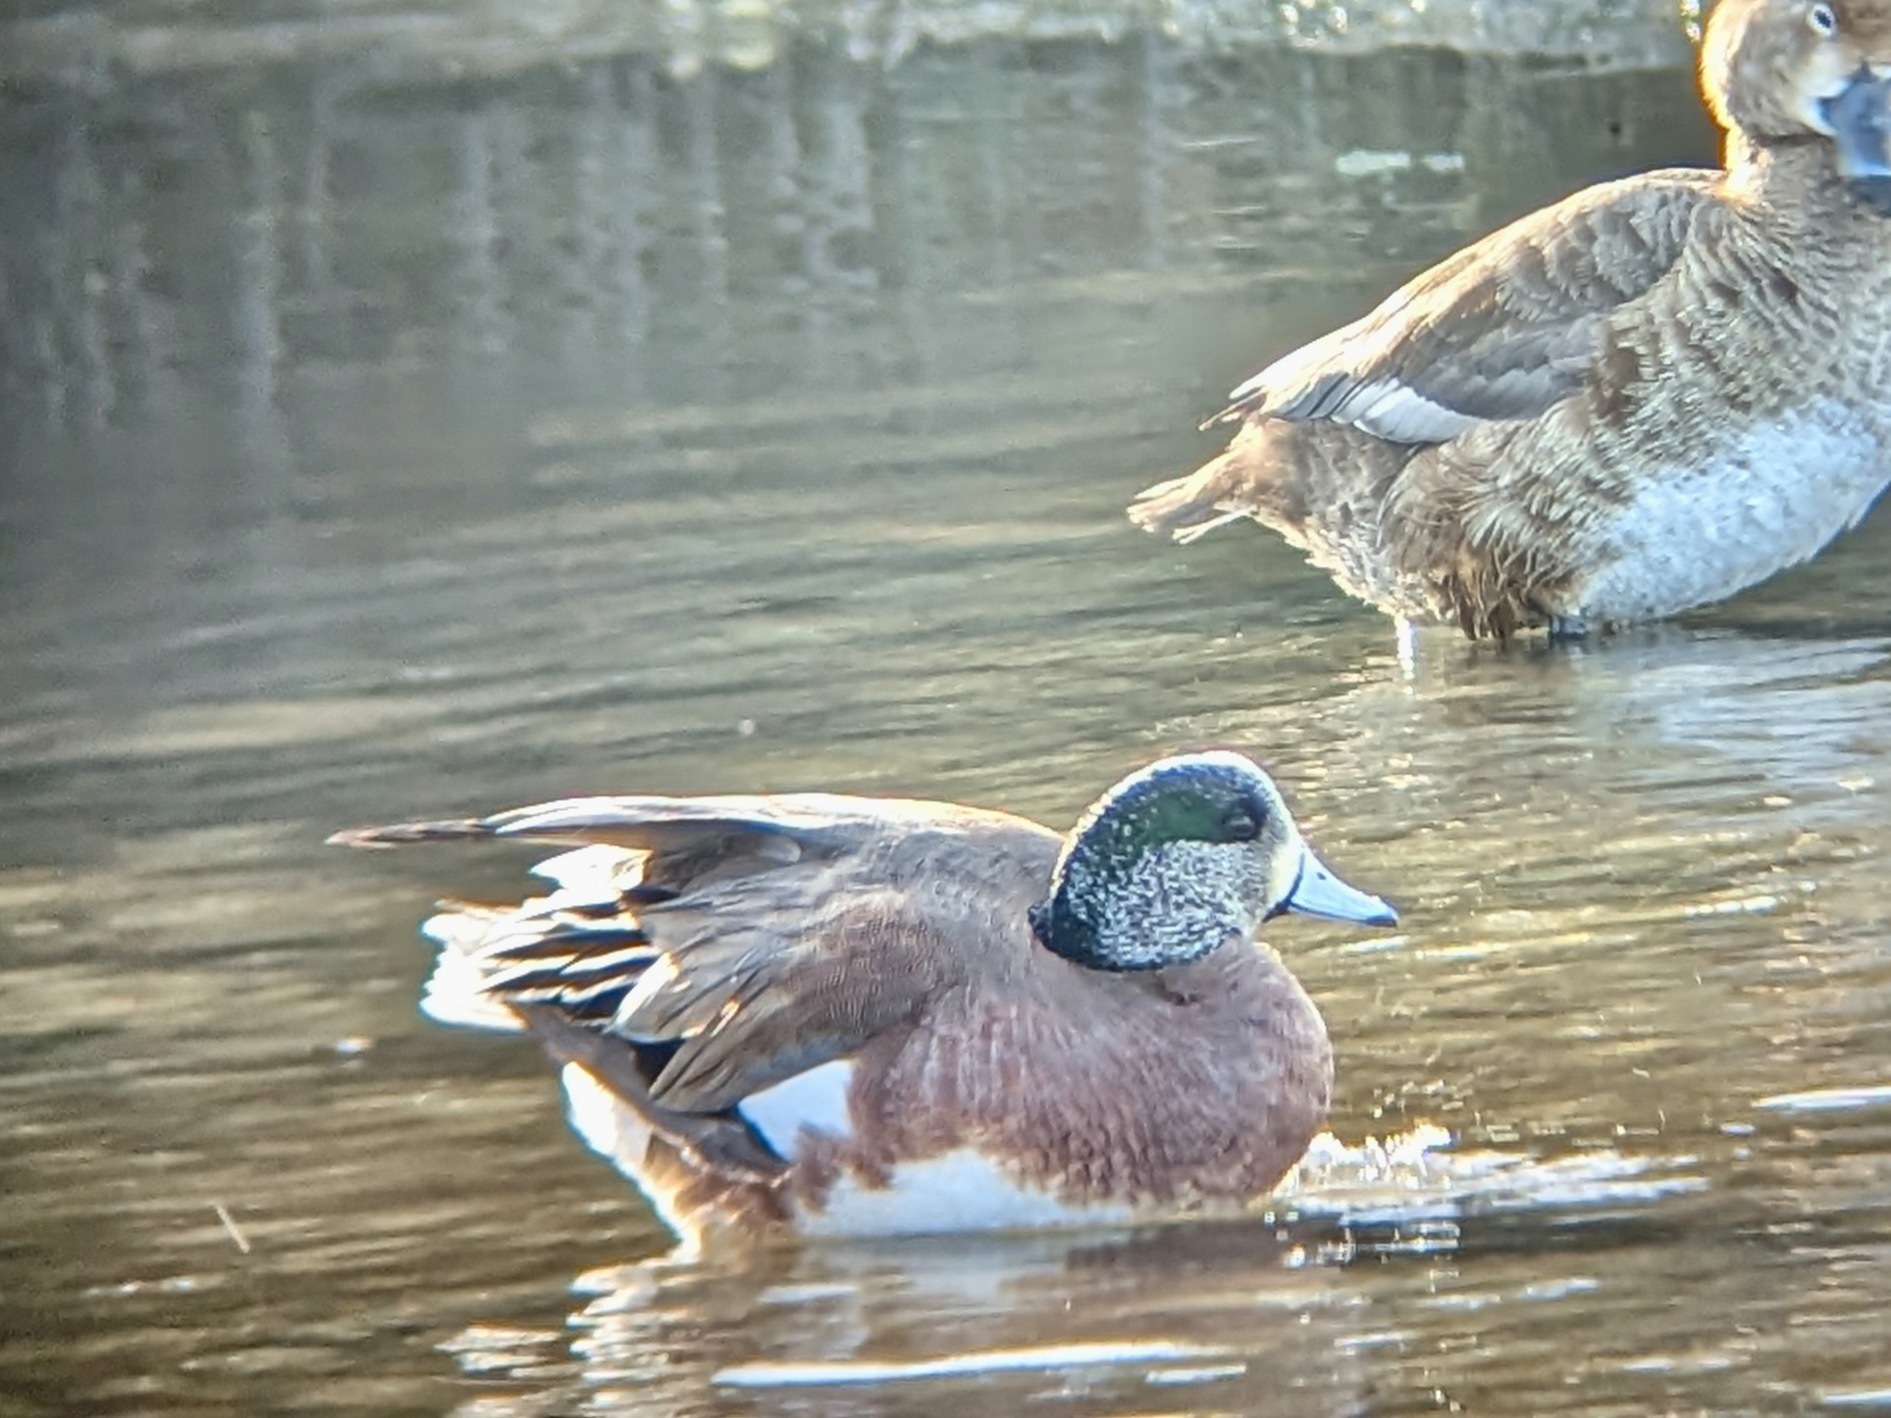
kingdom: Animalia
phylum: Chordata
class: Aves
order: Anseriformes
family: Anatidae
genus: Mareca
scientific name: Mareca americana
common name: American wigeon
